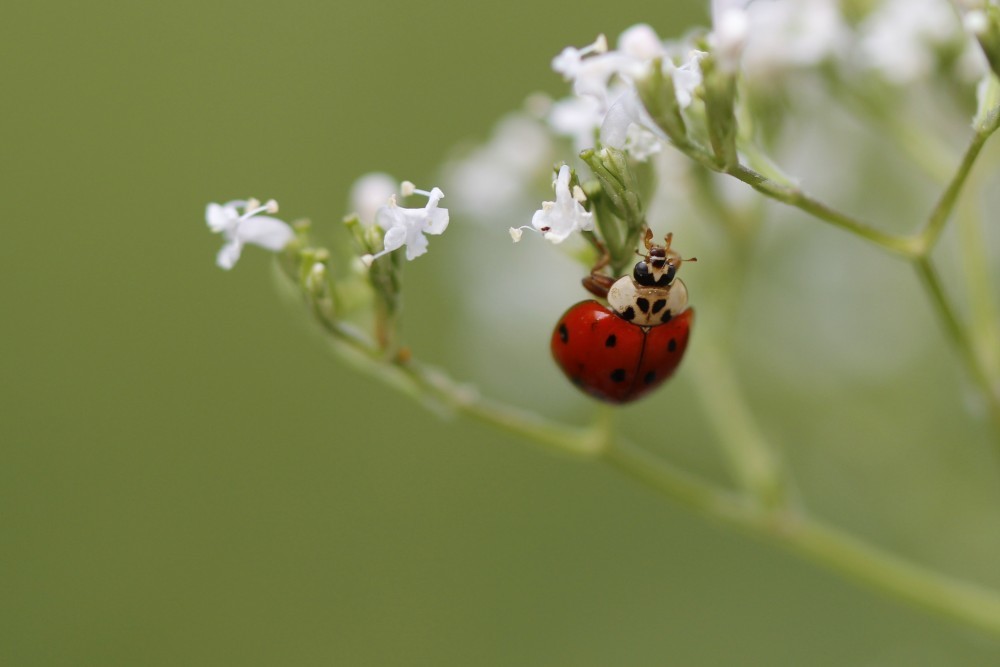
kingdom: Animalia
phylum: Arthropoda
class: Insecta
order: Coleoptera
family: Coccinellidae
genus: Harmonia
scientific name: Harmonia axyridis
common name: Harlequin ladybird
